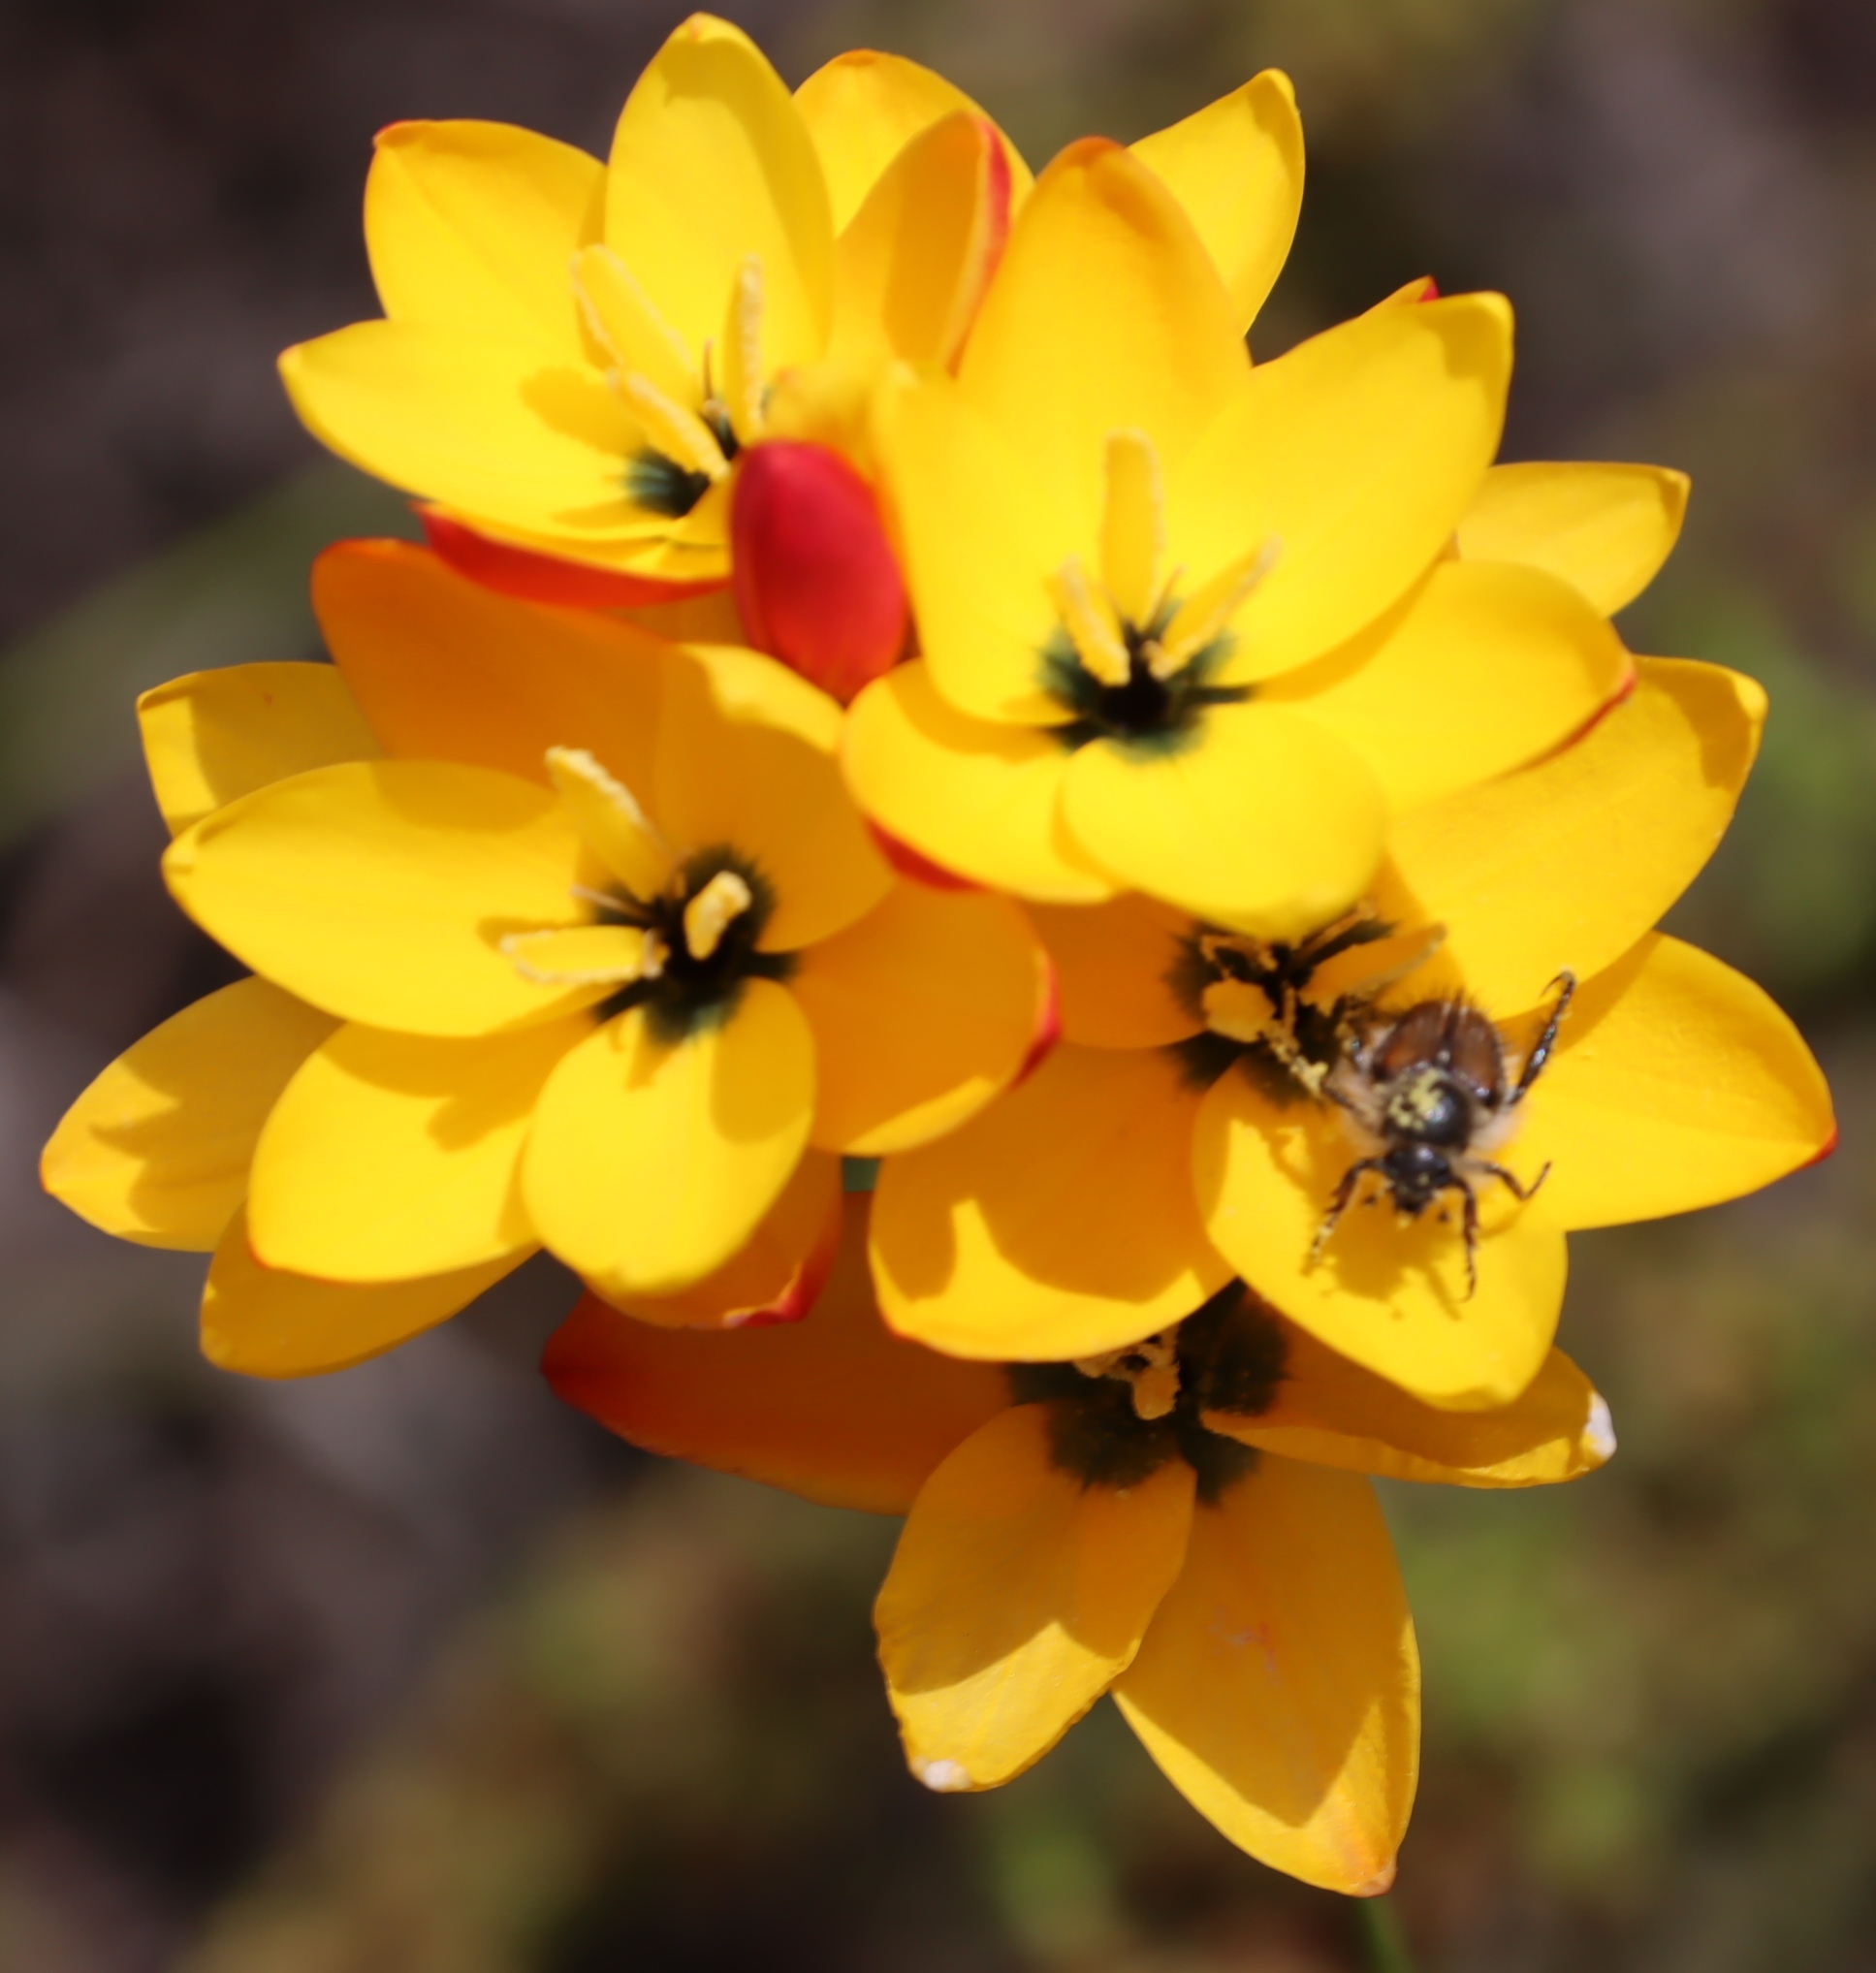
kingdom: Plantae
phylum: Tracheophyta
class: Liliopsida
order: Asparagales
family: Iridaceae
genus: Ixia
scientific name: Ixia dubia
